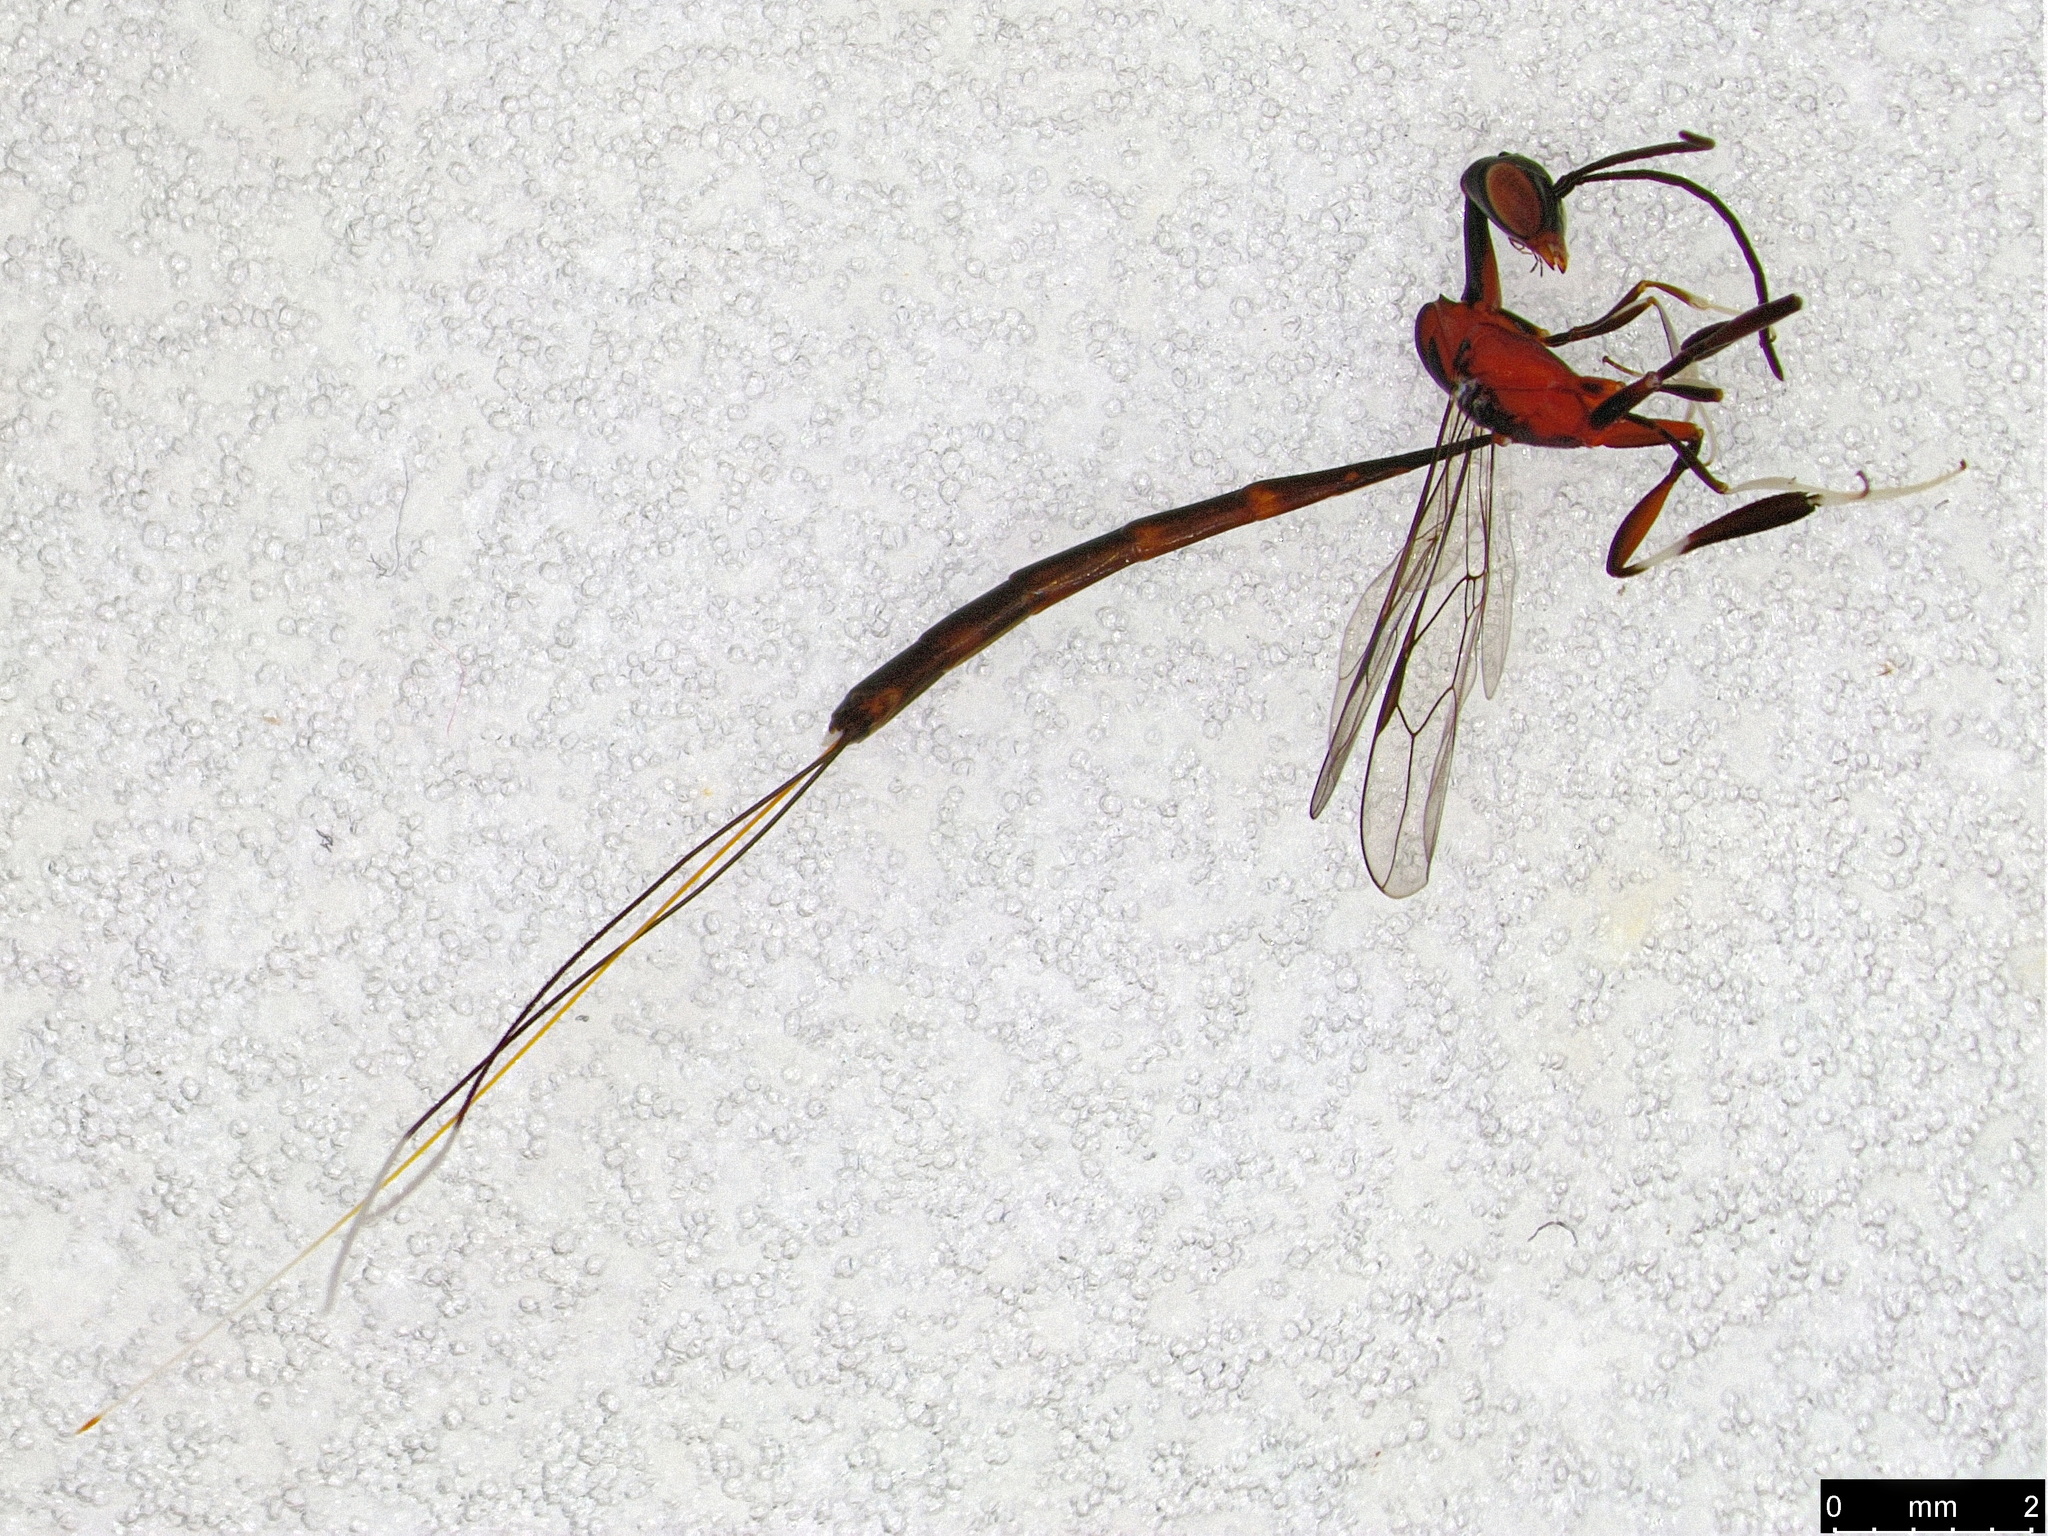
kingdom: Animalia
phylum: Arthropoda
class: Insecta
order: Hymenoptera
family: Gasteruptiidae
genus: Gasteruption
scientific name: Gasteruption
